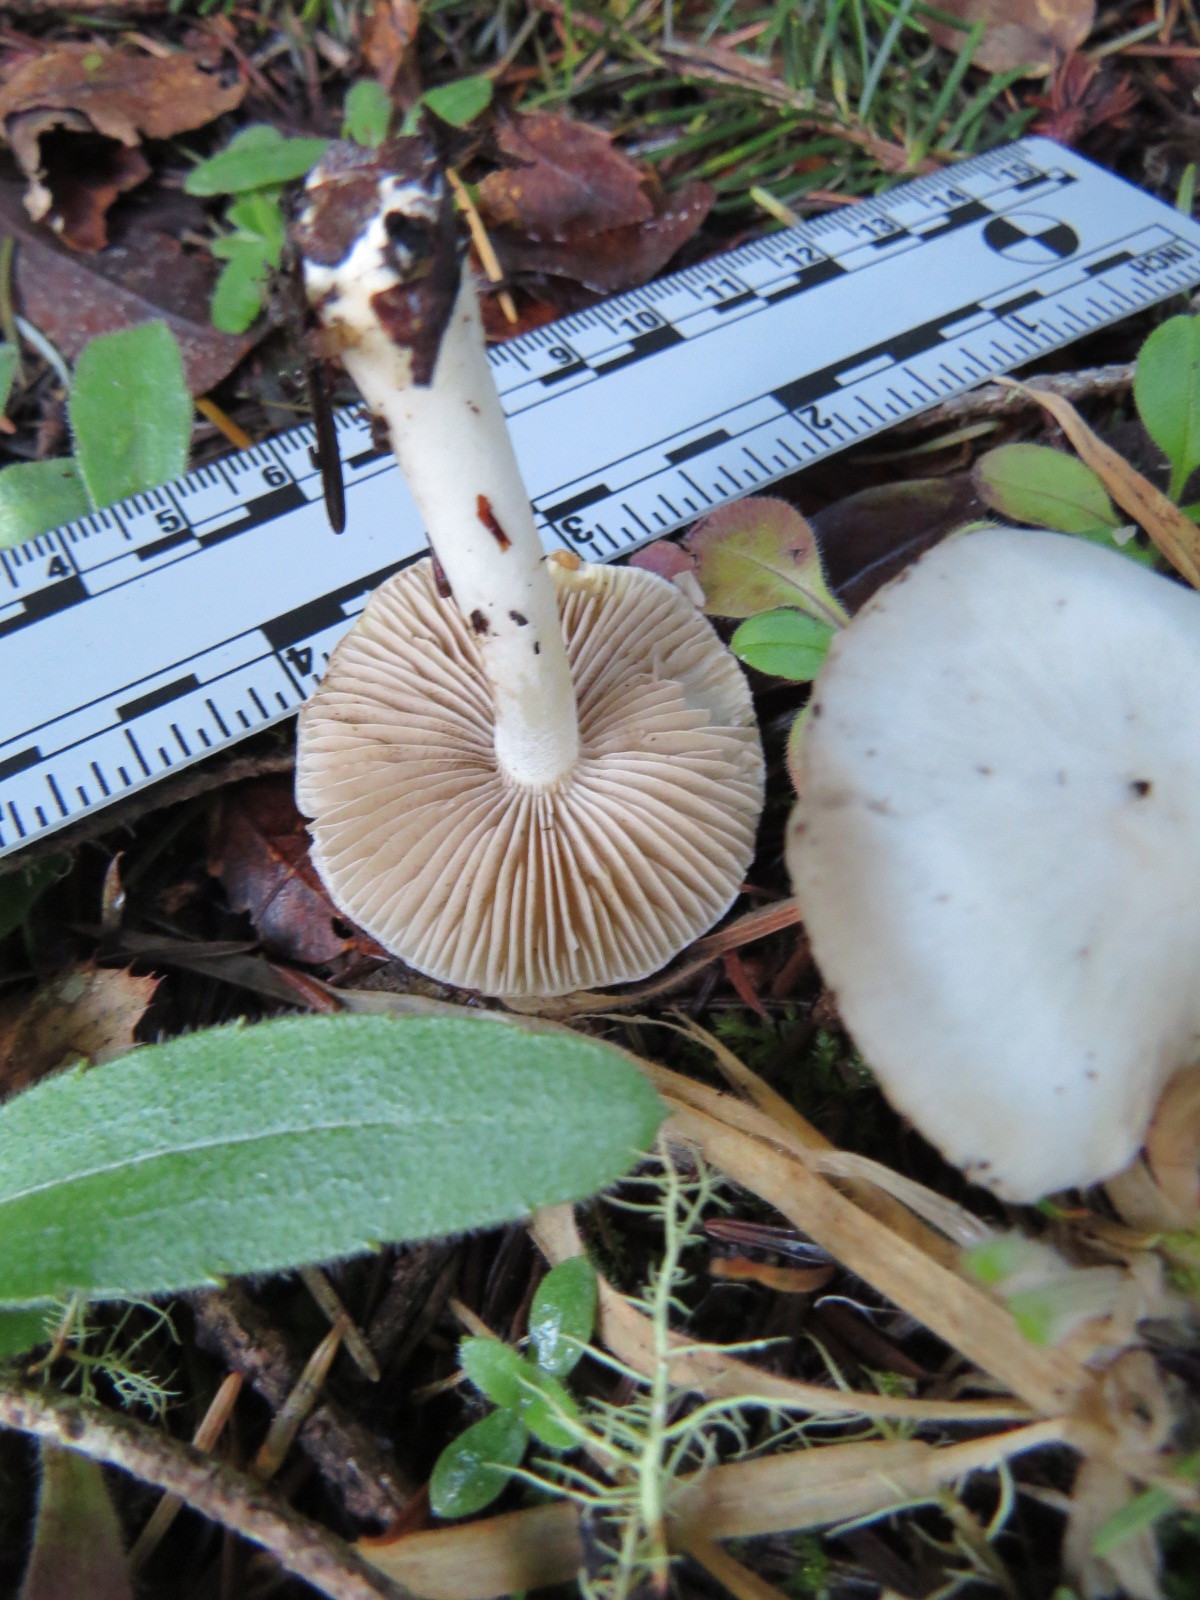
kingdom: Fungi
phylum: Basidiomycota
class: Agaricomycetes
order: Agaricales
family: Inocybaceae
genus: Inocybe
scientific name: Inocybe geophylla
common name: White fibrecap
